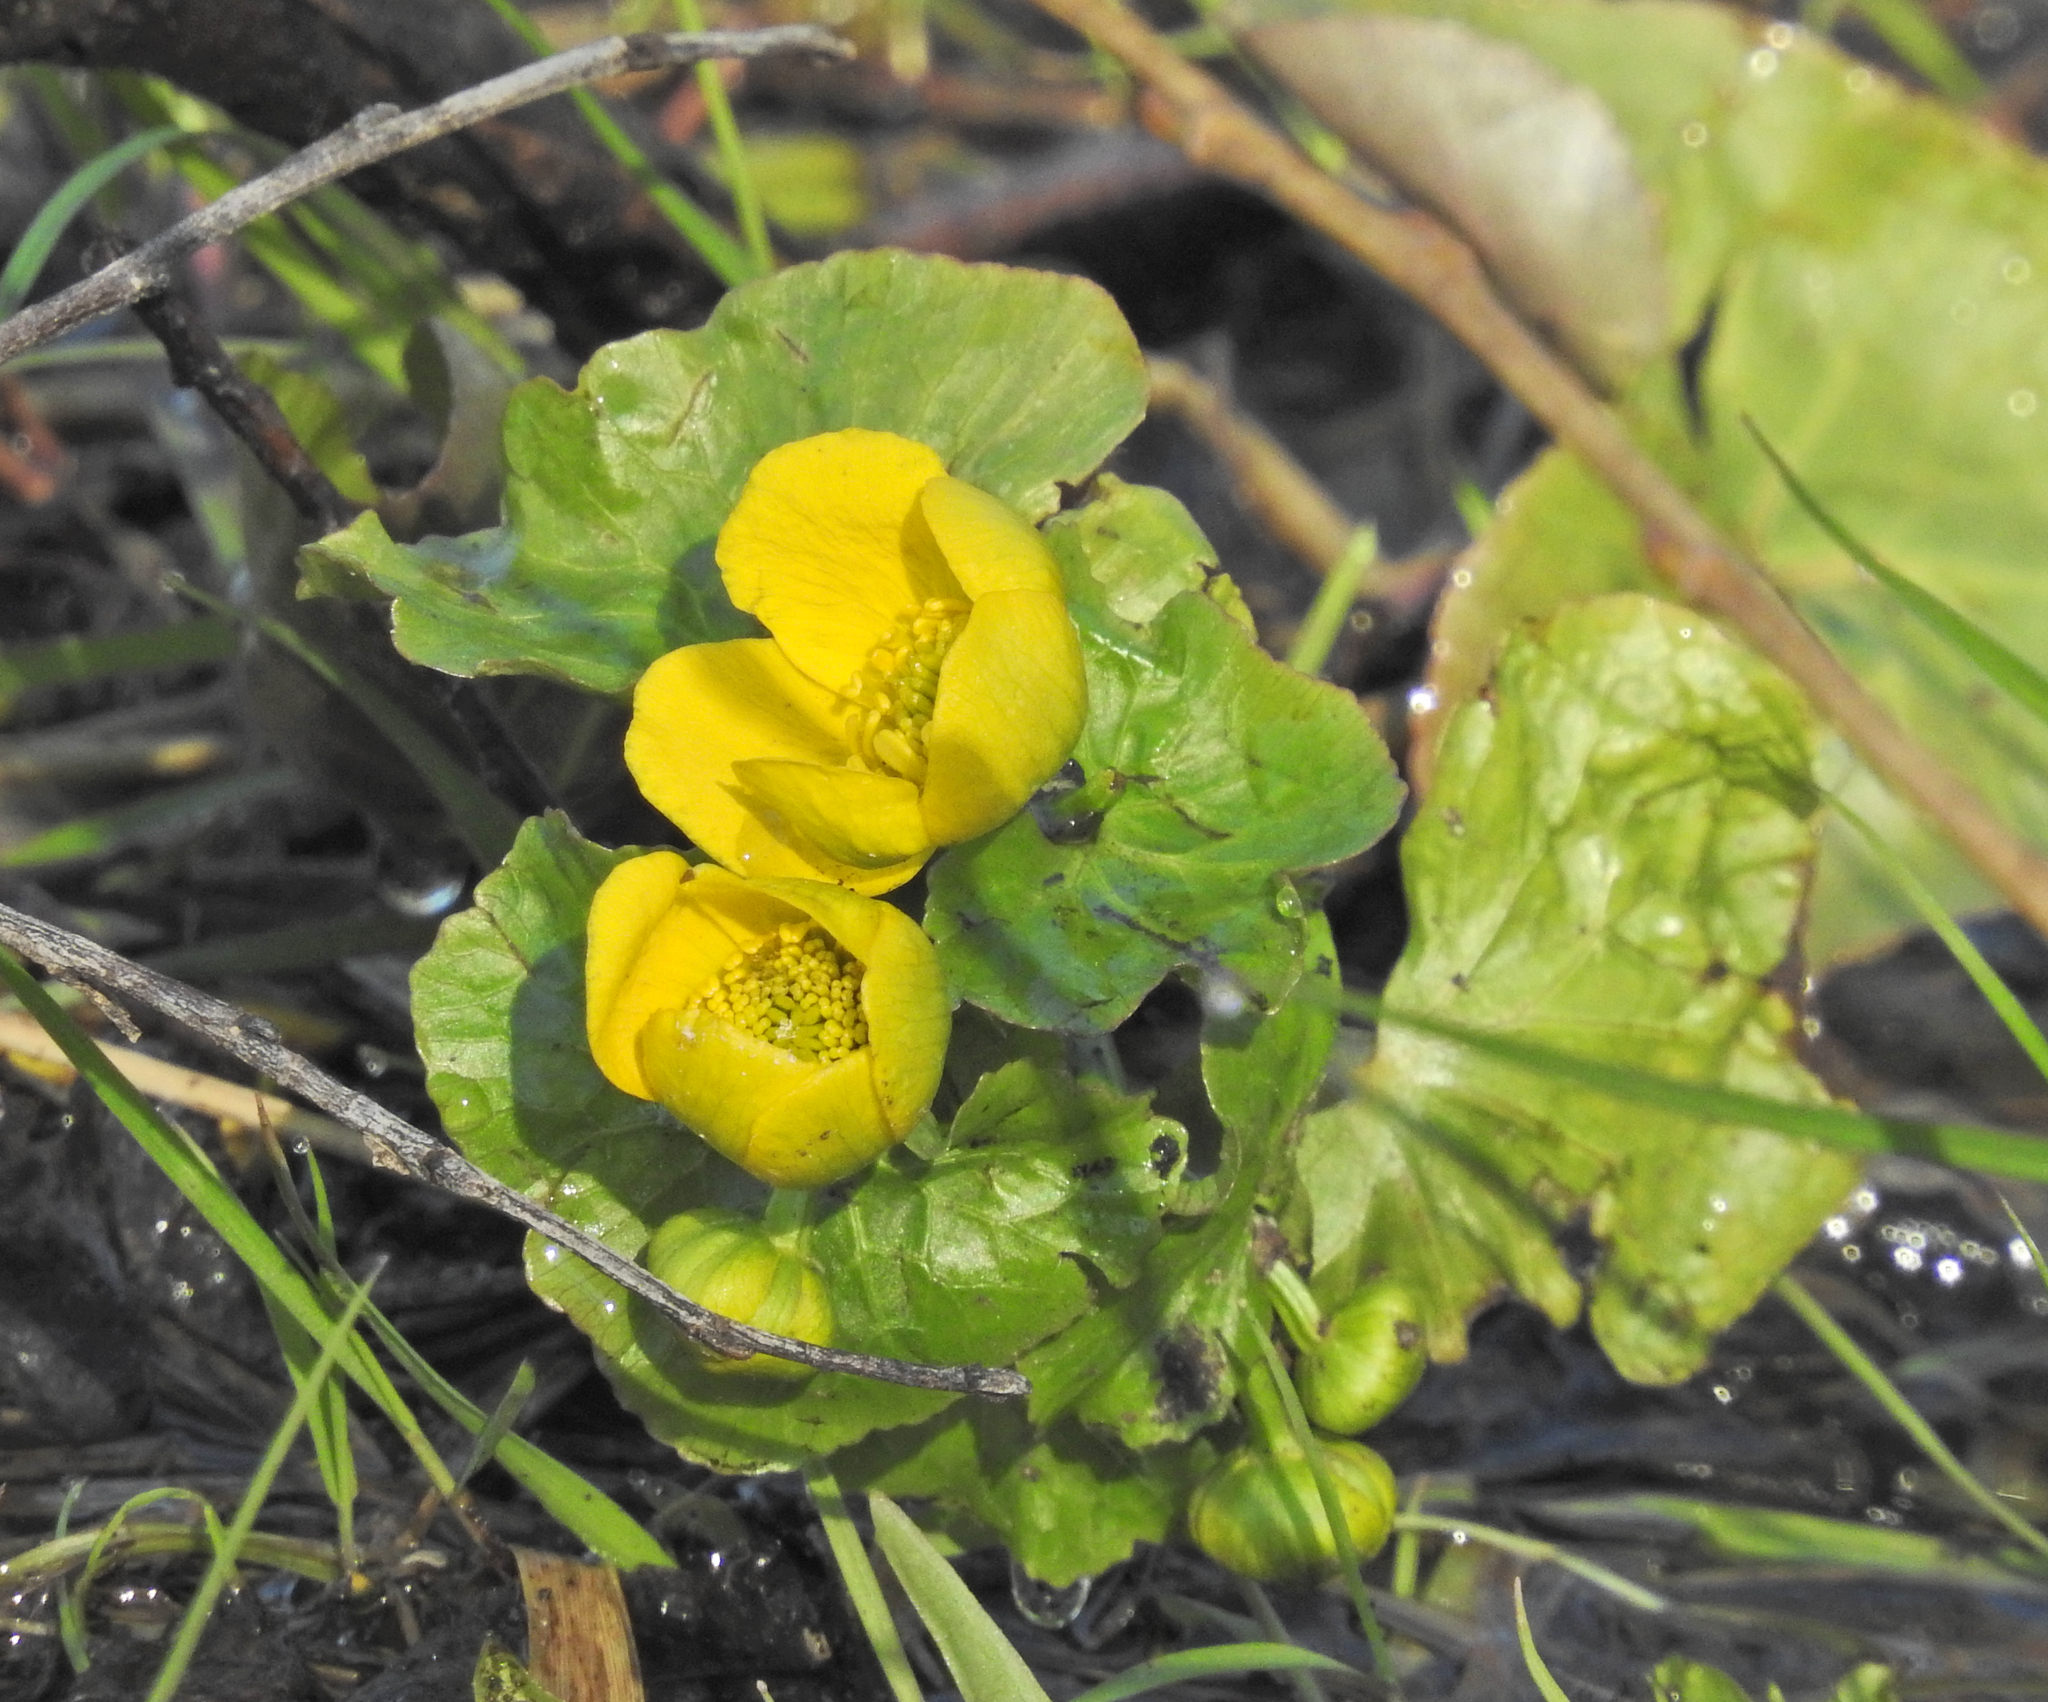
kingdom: Plantae
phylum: Tracheophyta
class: Magnoliopsida
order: Ranunculales
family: Ranunculaceae
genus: Caltha
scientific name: Caltha palustris
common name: Marsh marigold
